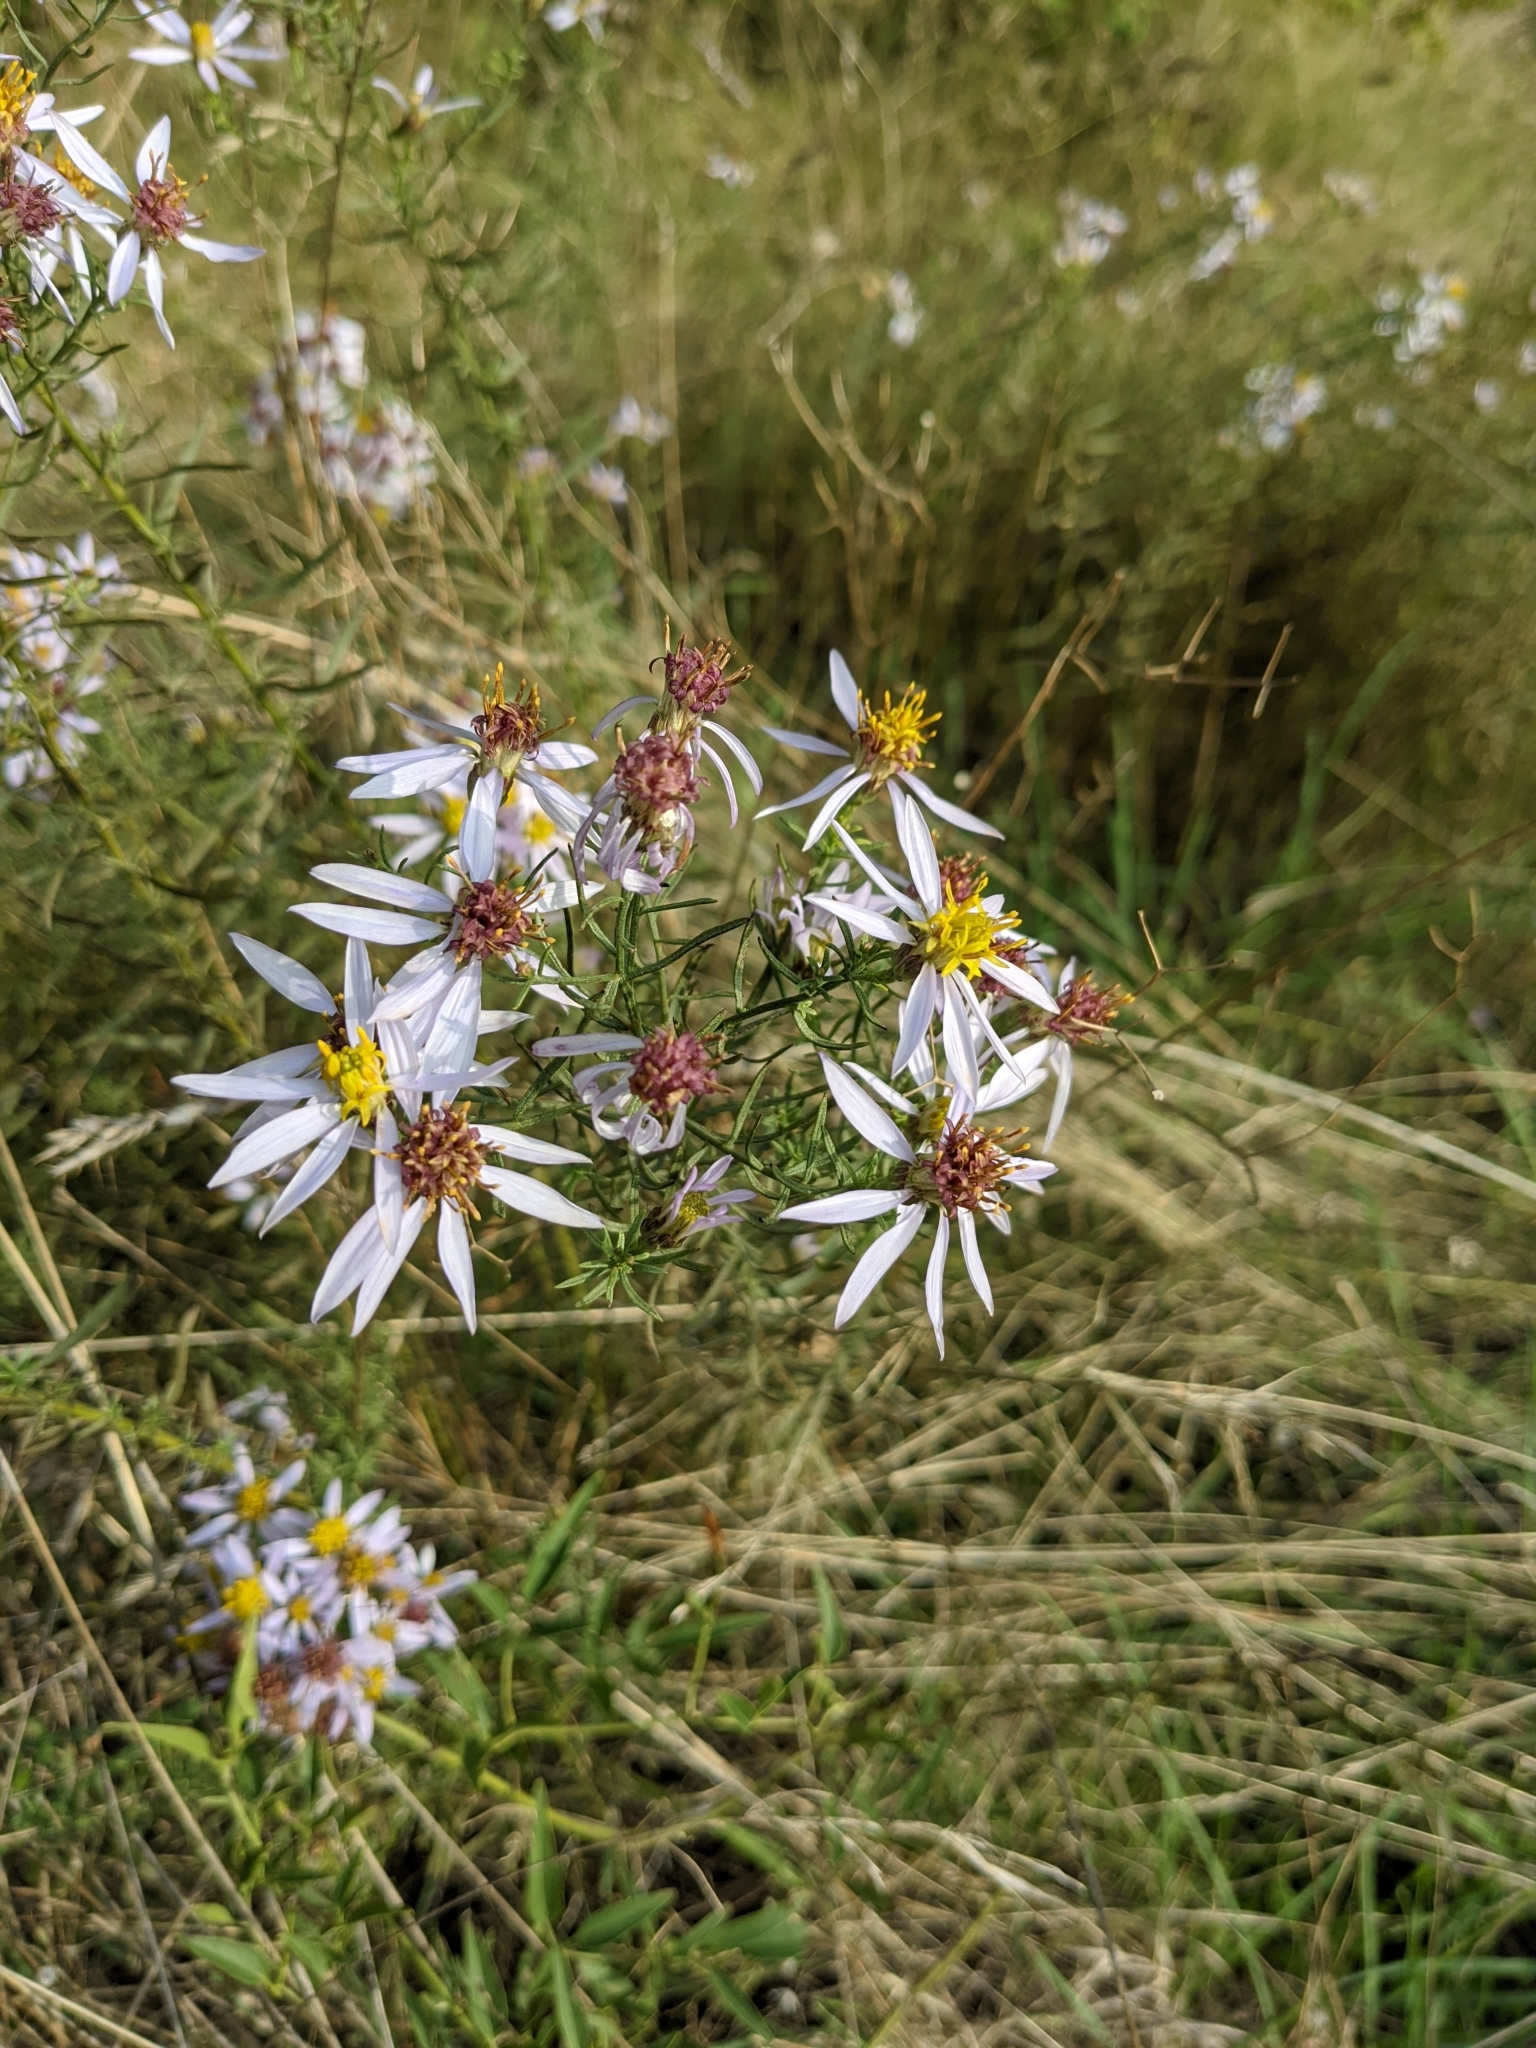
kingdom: Plantae
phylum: Tracheophyta
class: Magnoliopsida
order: Asterales
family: Asteraceae
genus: Galatella
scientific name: Galatella sedifolia
